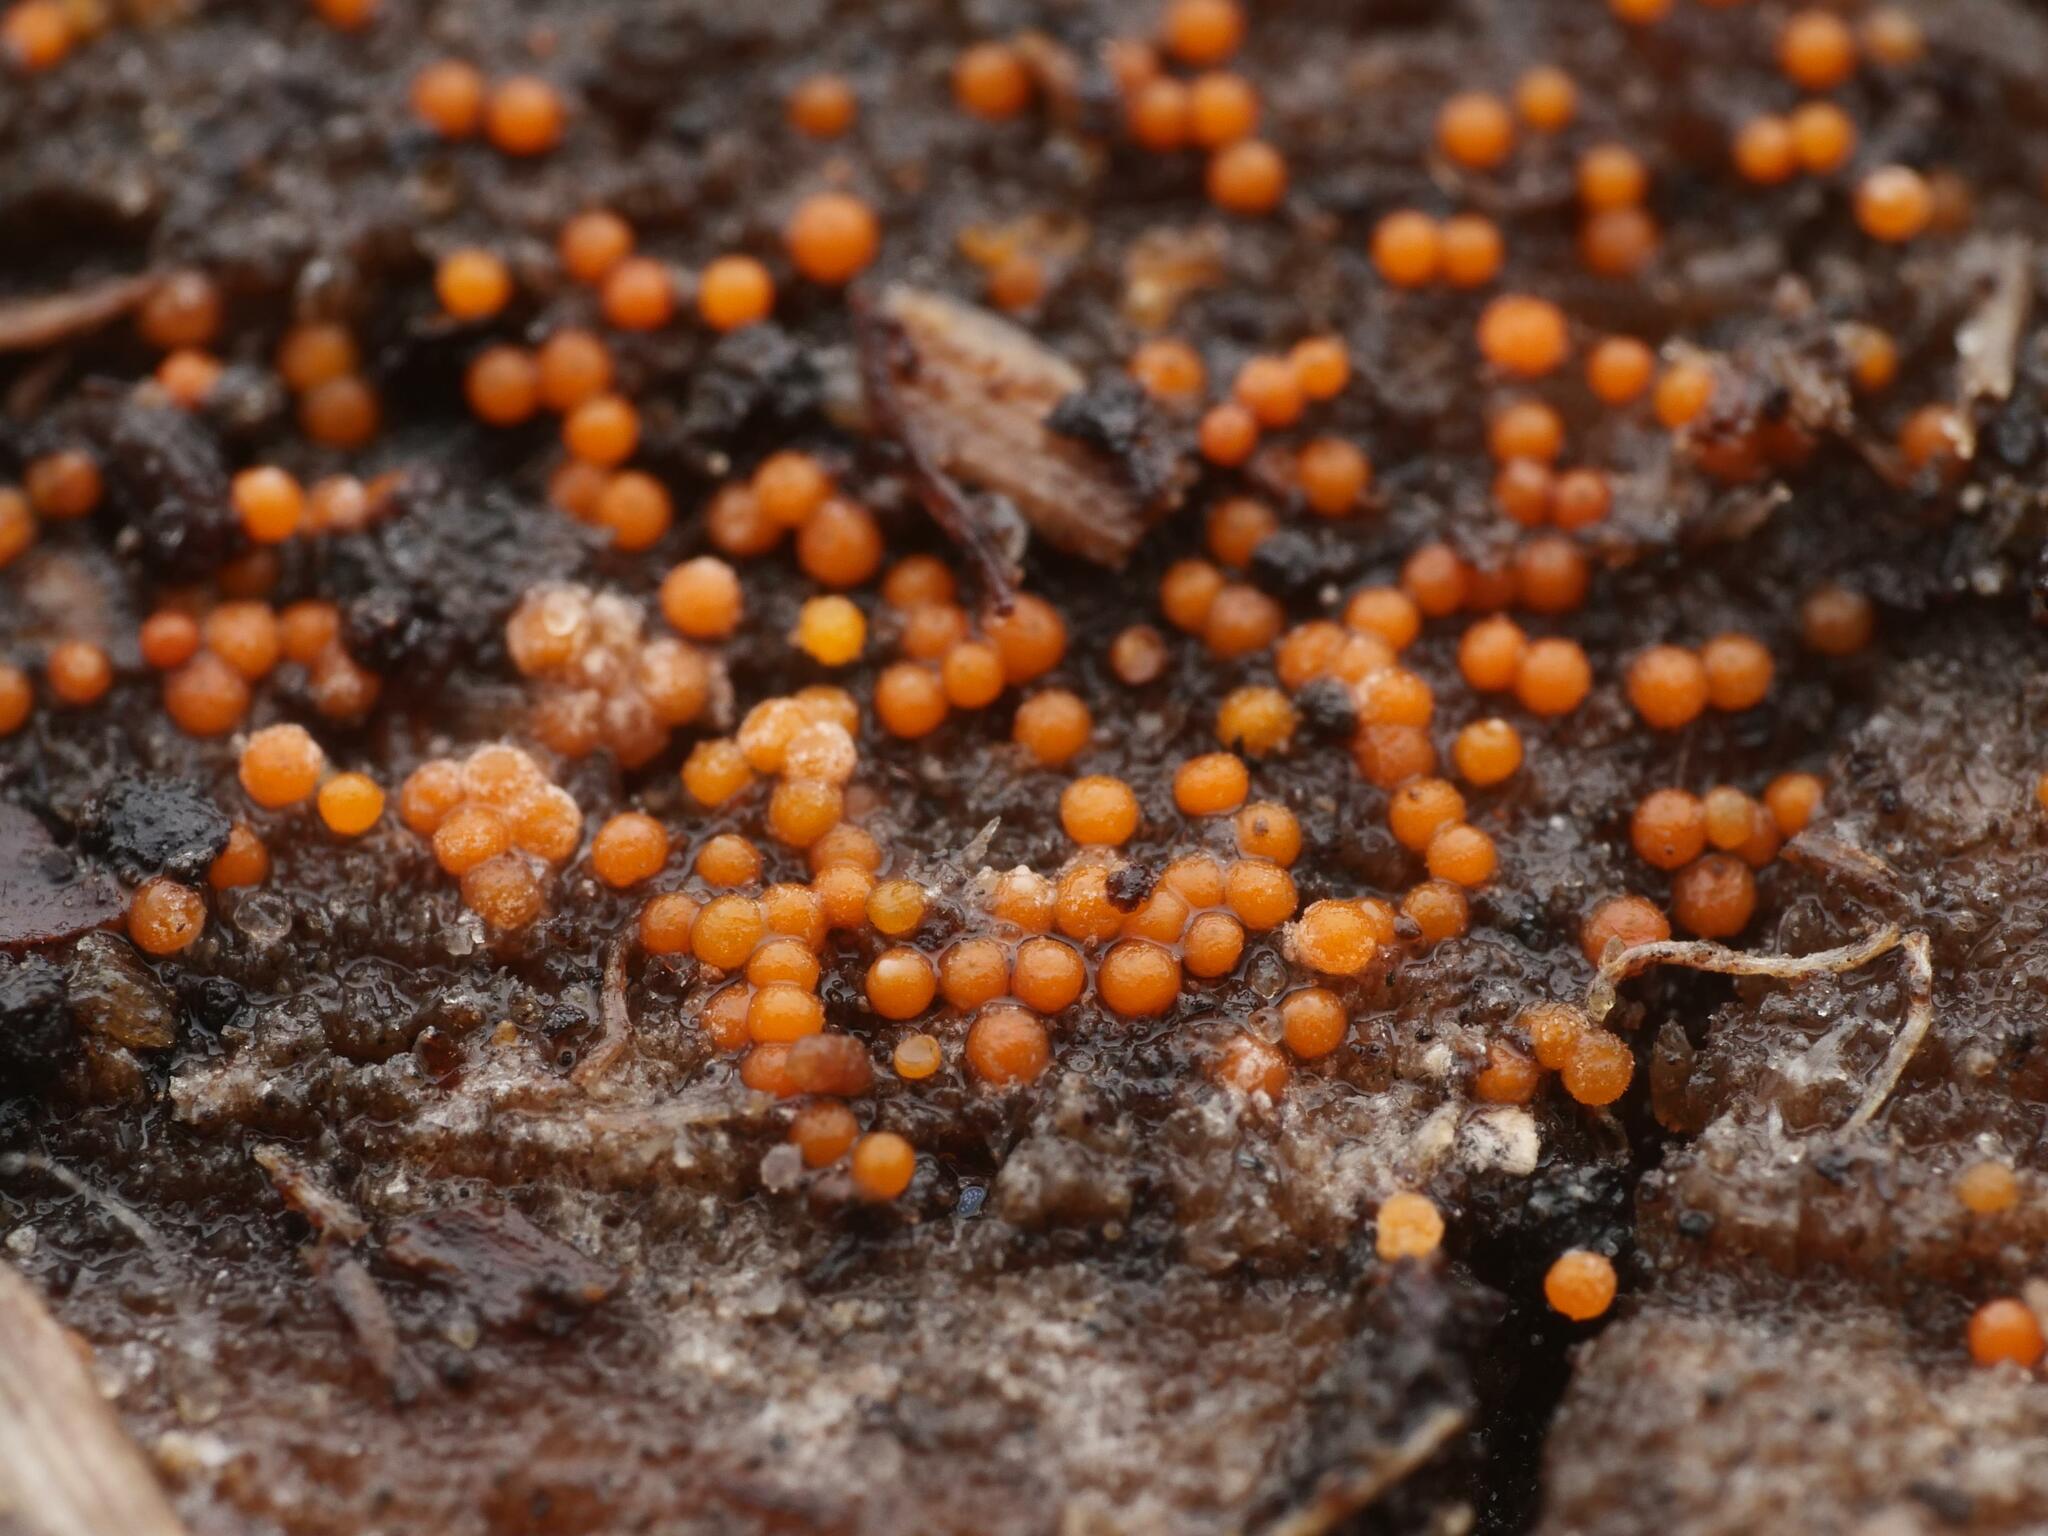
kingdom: Fungi
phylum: Ascomycota
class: Sordariomycetes
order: Hypocreales
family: Nectriaceae
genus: Hydropisphaera
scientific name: Hydropisphaera peziza
